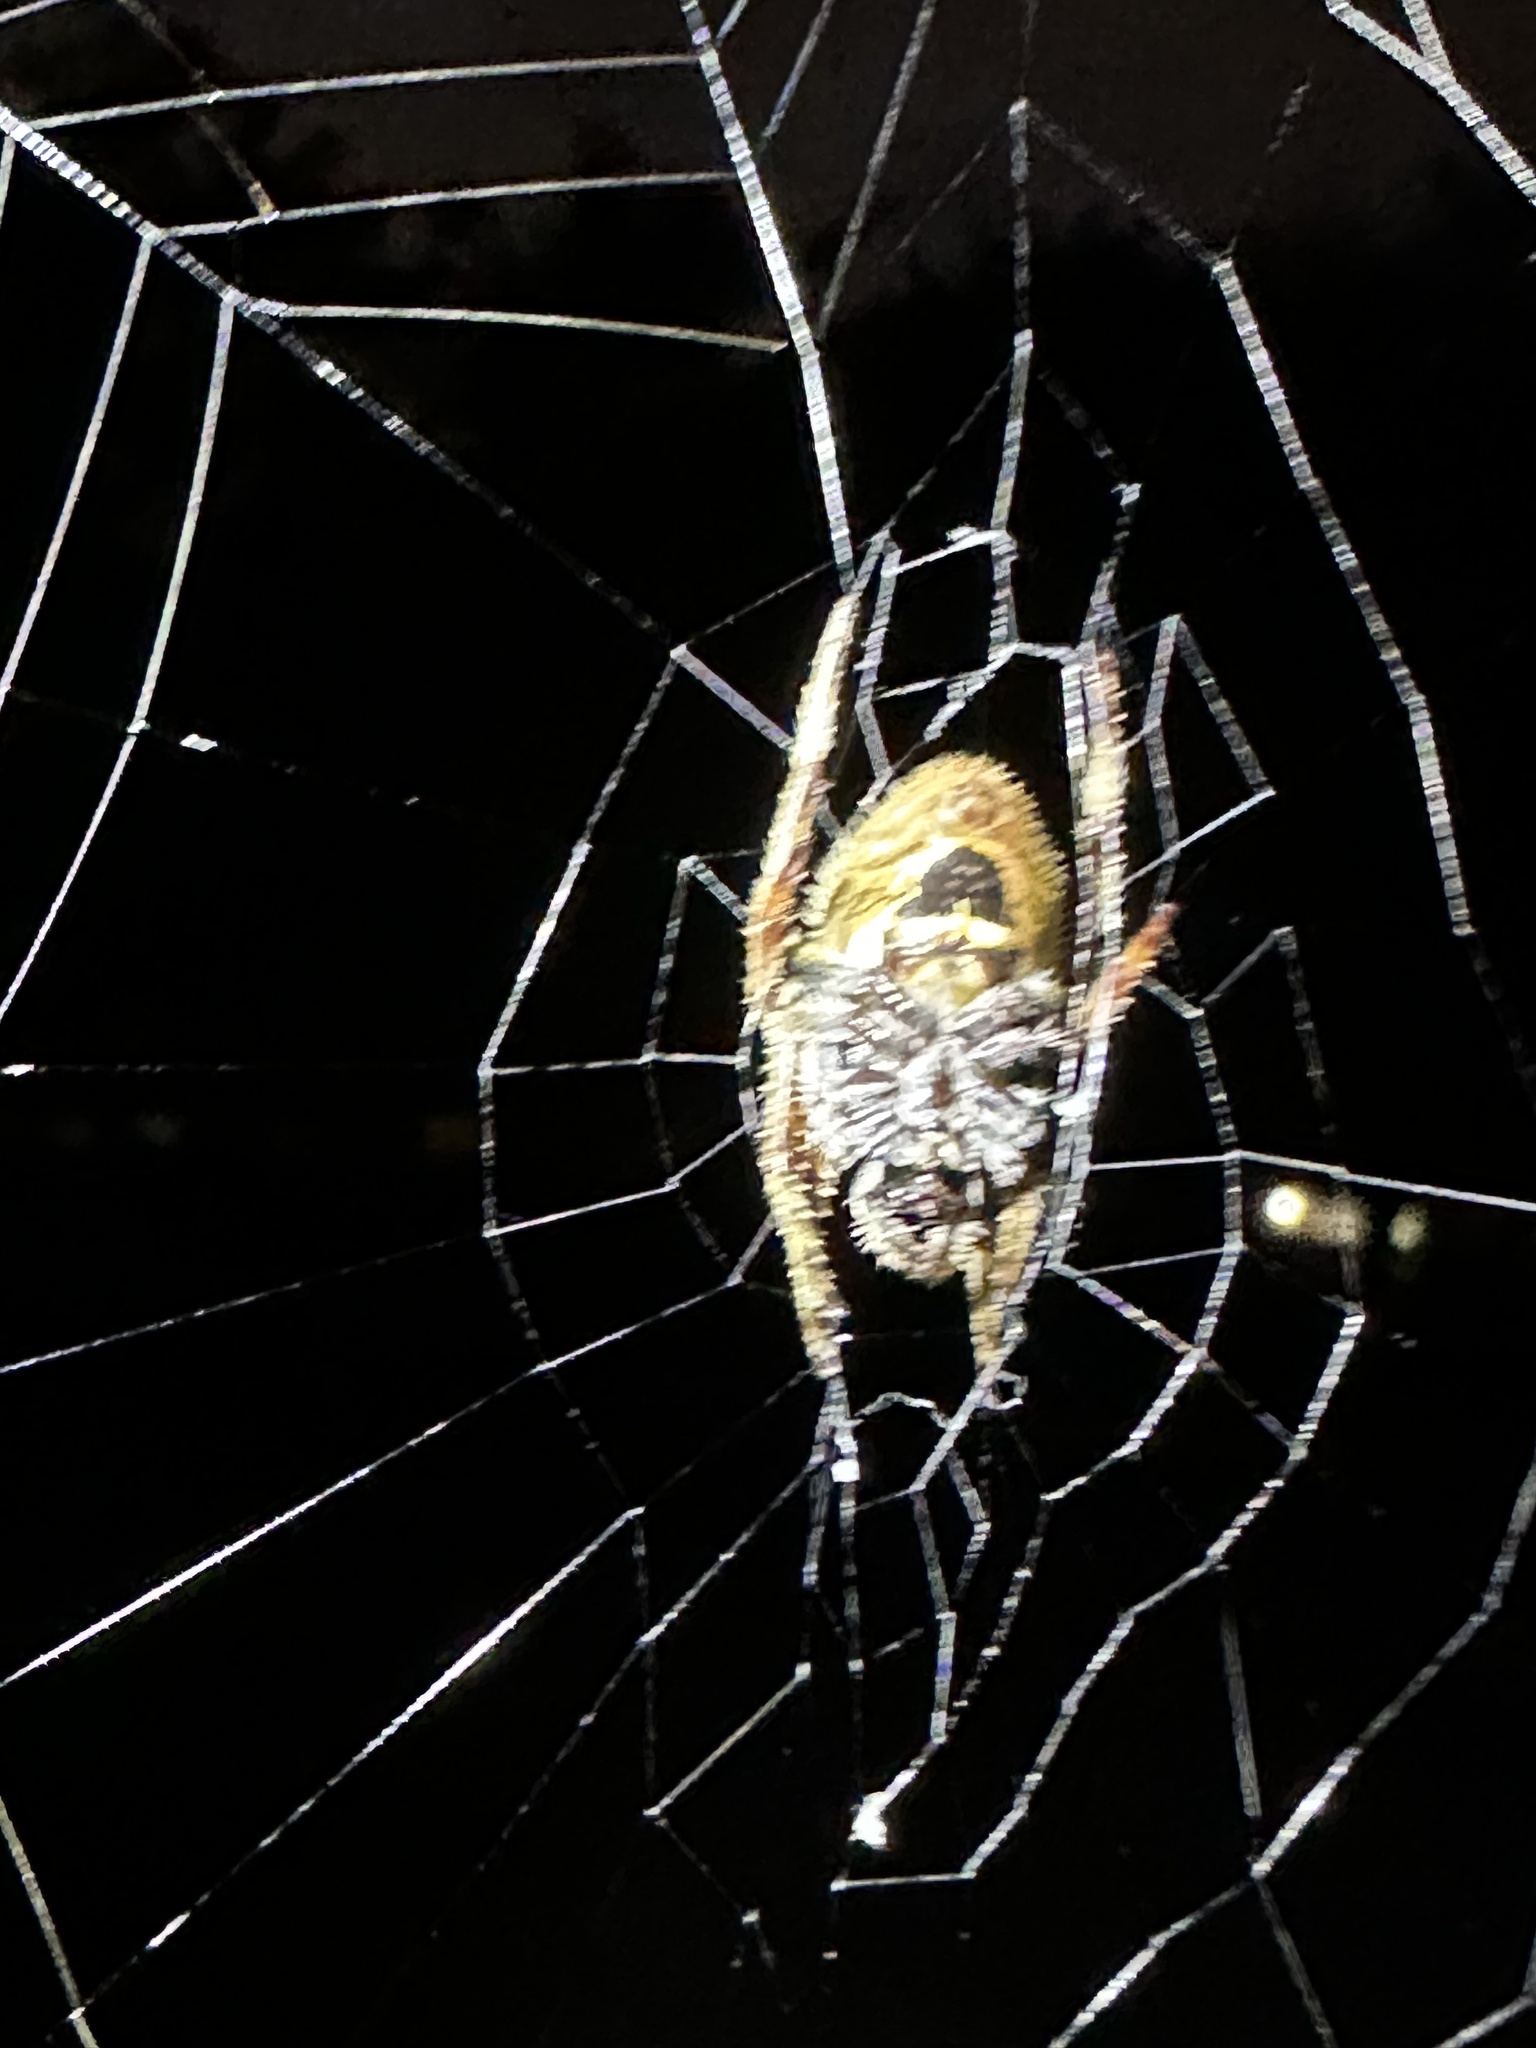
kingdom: Animalia
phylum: Arthropoda
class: Arachnida
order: Araneae
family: Araneidae
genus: Eriophora
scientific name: Eriophora ravilla
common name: Orb weavers
